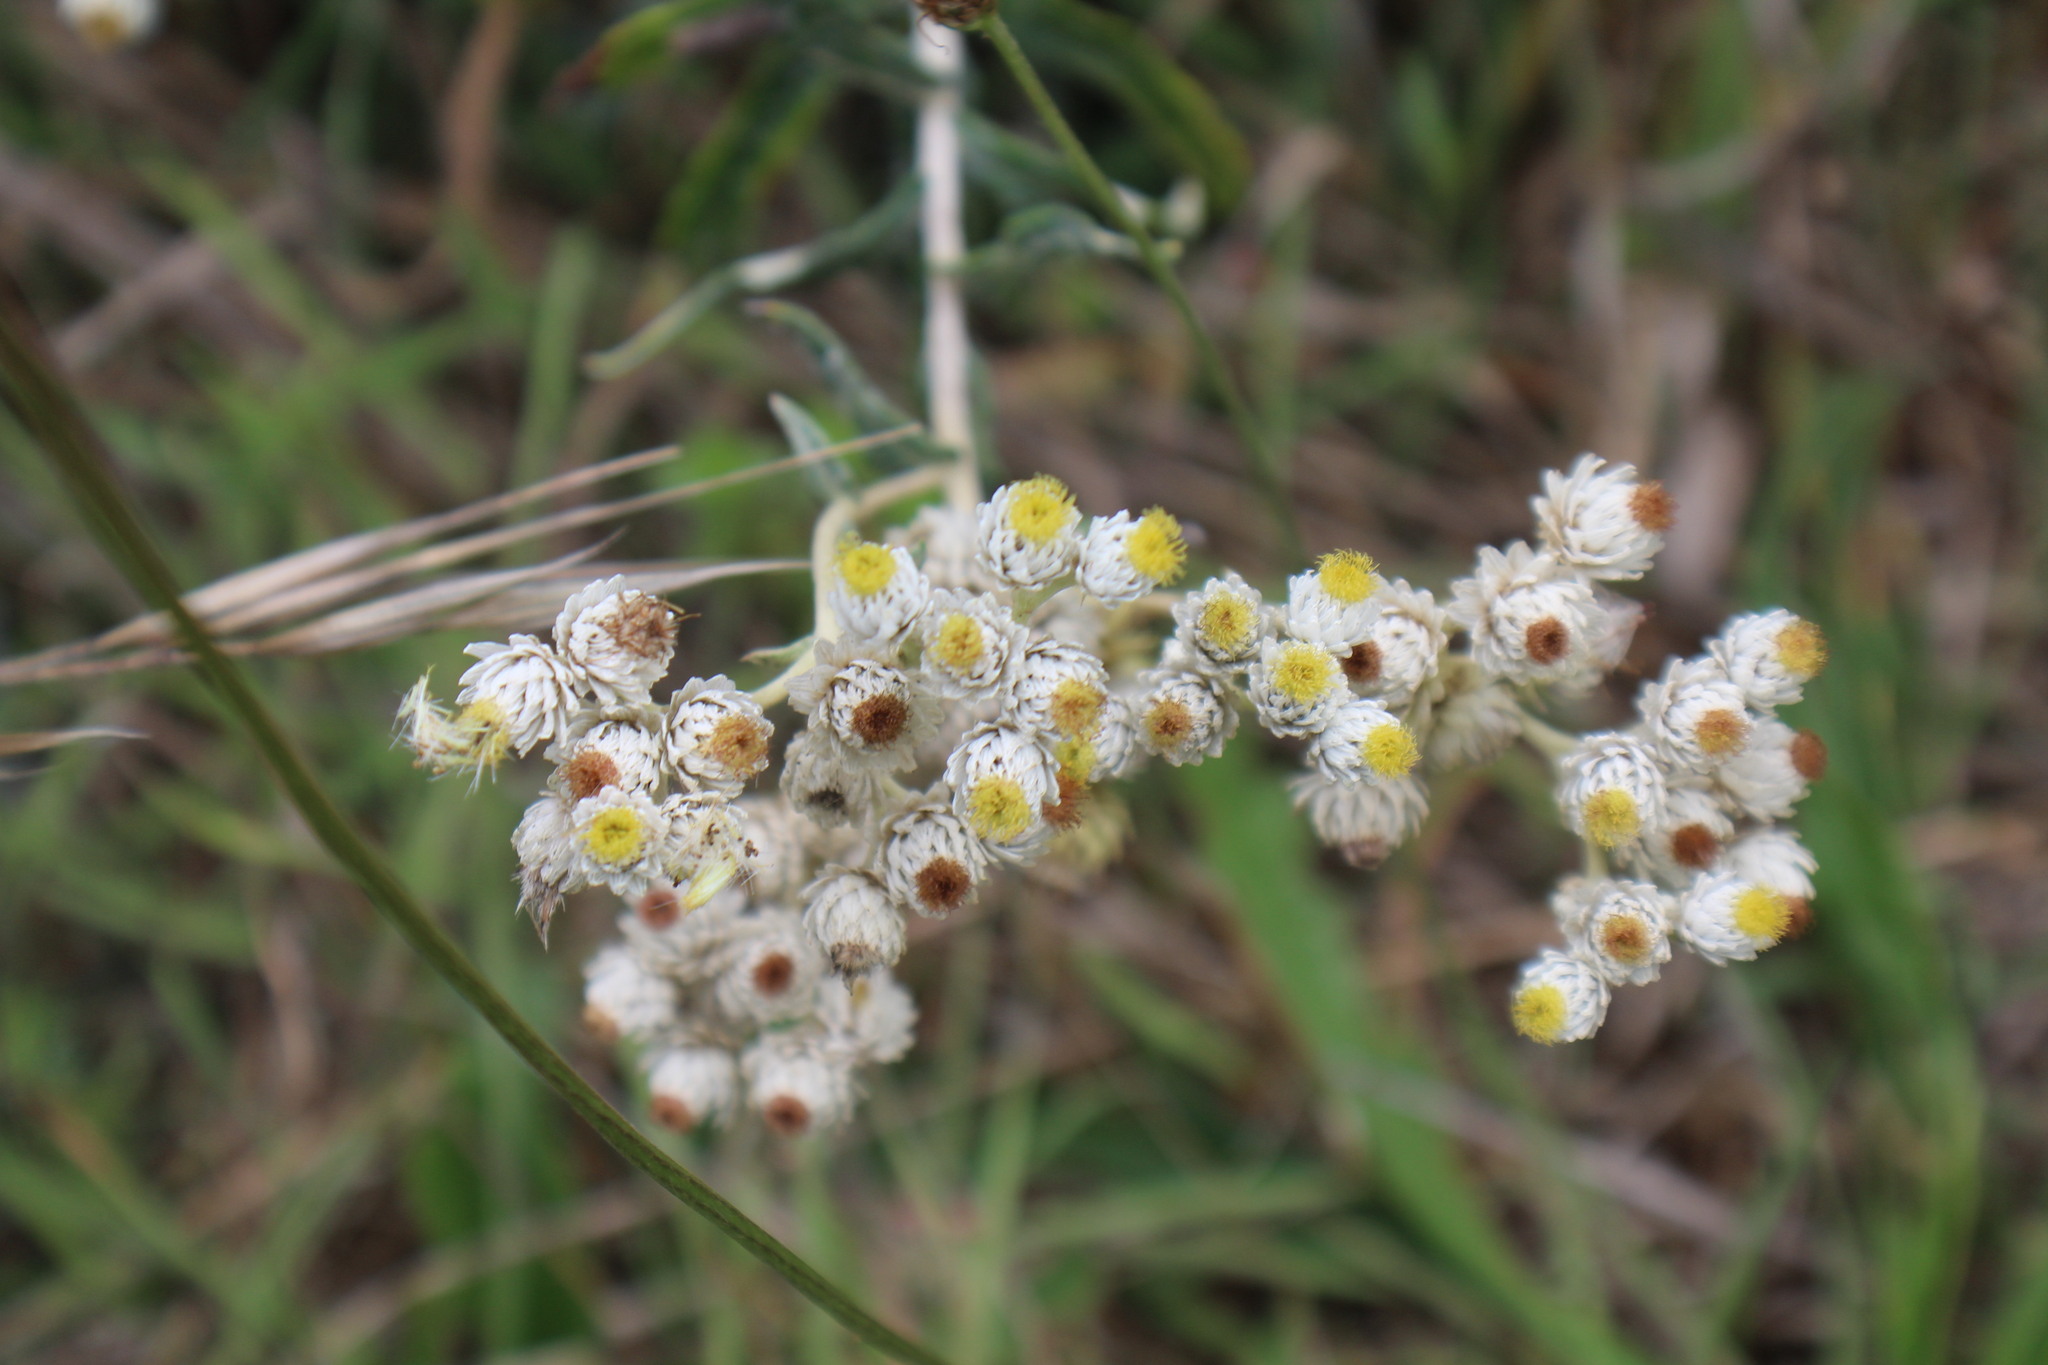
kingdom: Plantae
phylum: Tracheophyta
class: Magnoliopsida
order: Asterales
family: Asteraceae
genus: Anaphalis
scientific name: Anaphalis margaritacea
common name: Pearly everlasting
